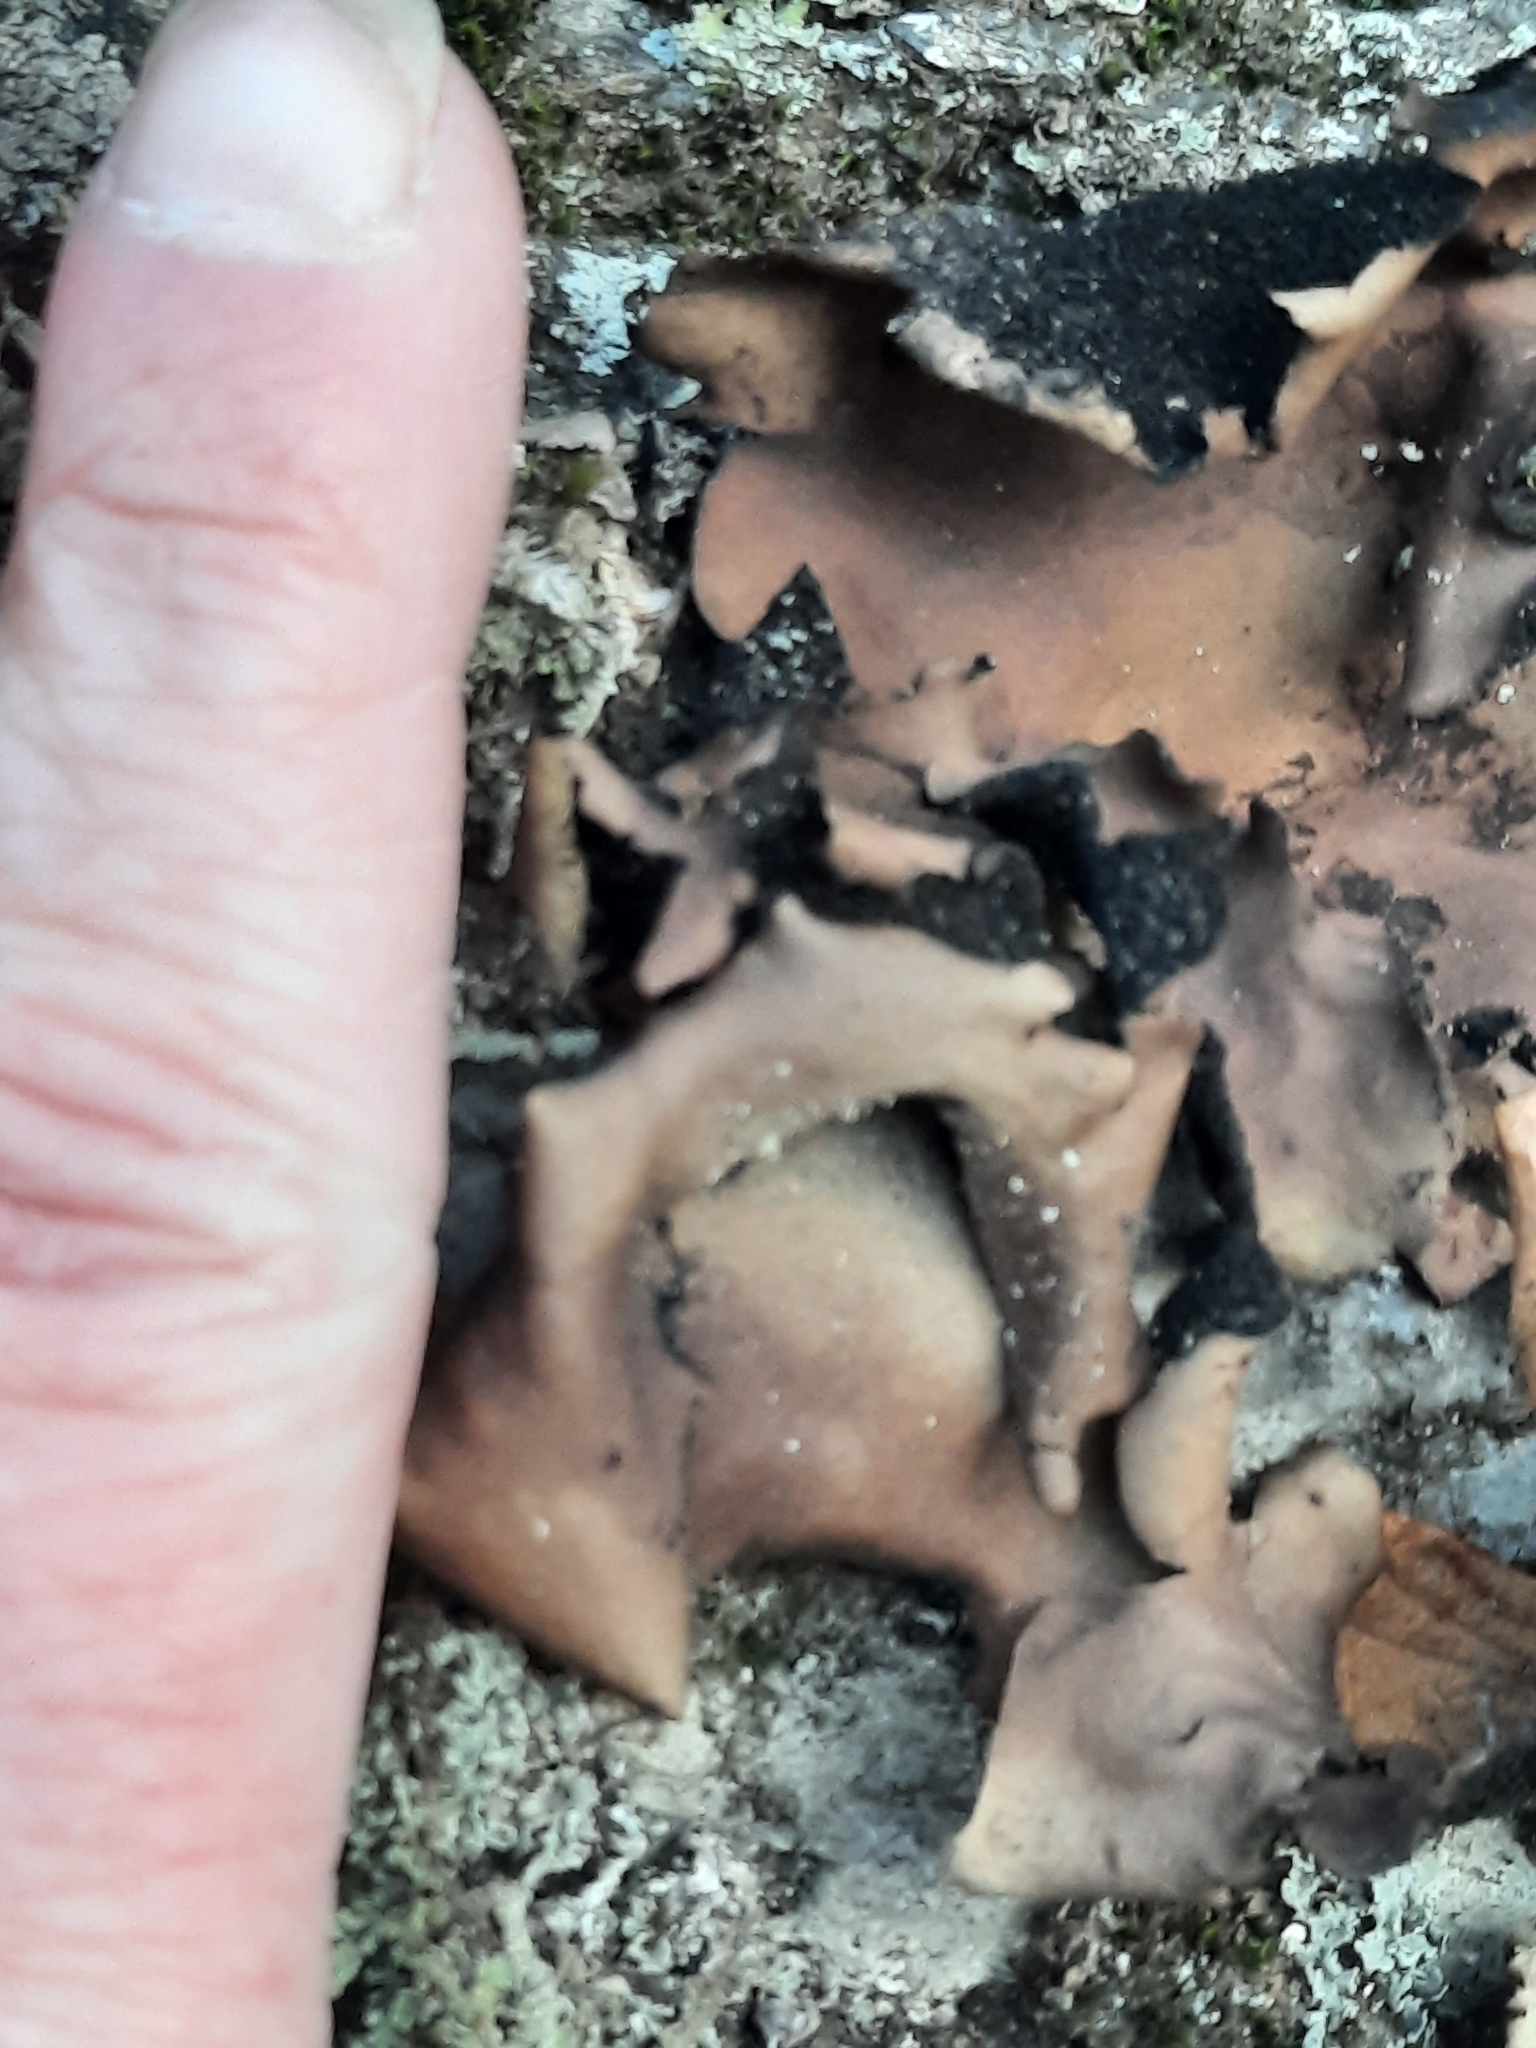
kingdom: Fungi
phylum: Ascomycota
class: Lecanoromycetes
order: Umbilicariales
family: Umbilicariaceae
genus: Umbilicaria
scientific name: Umbilicaria mammulata
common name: Smooth rock tripe
